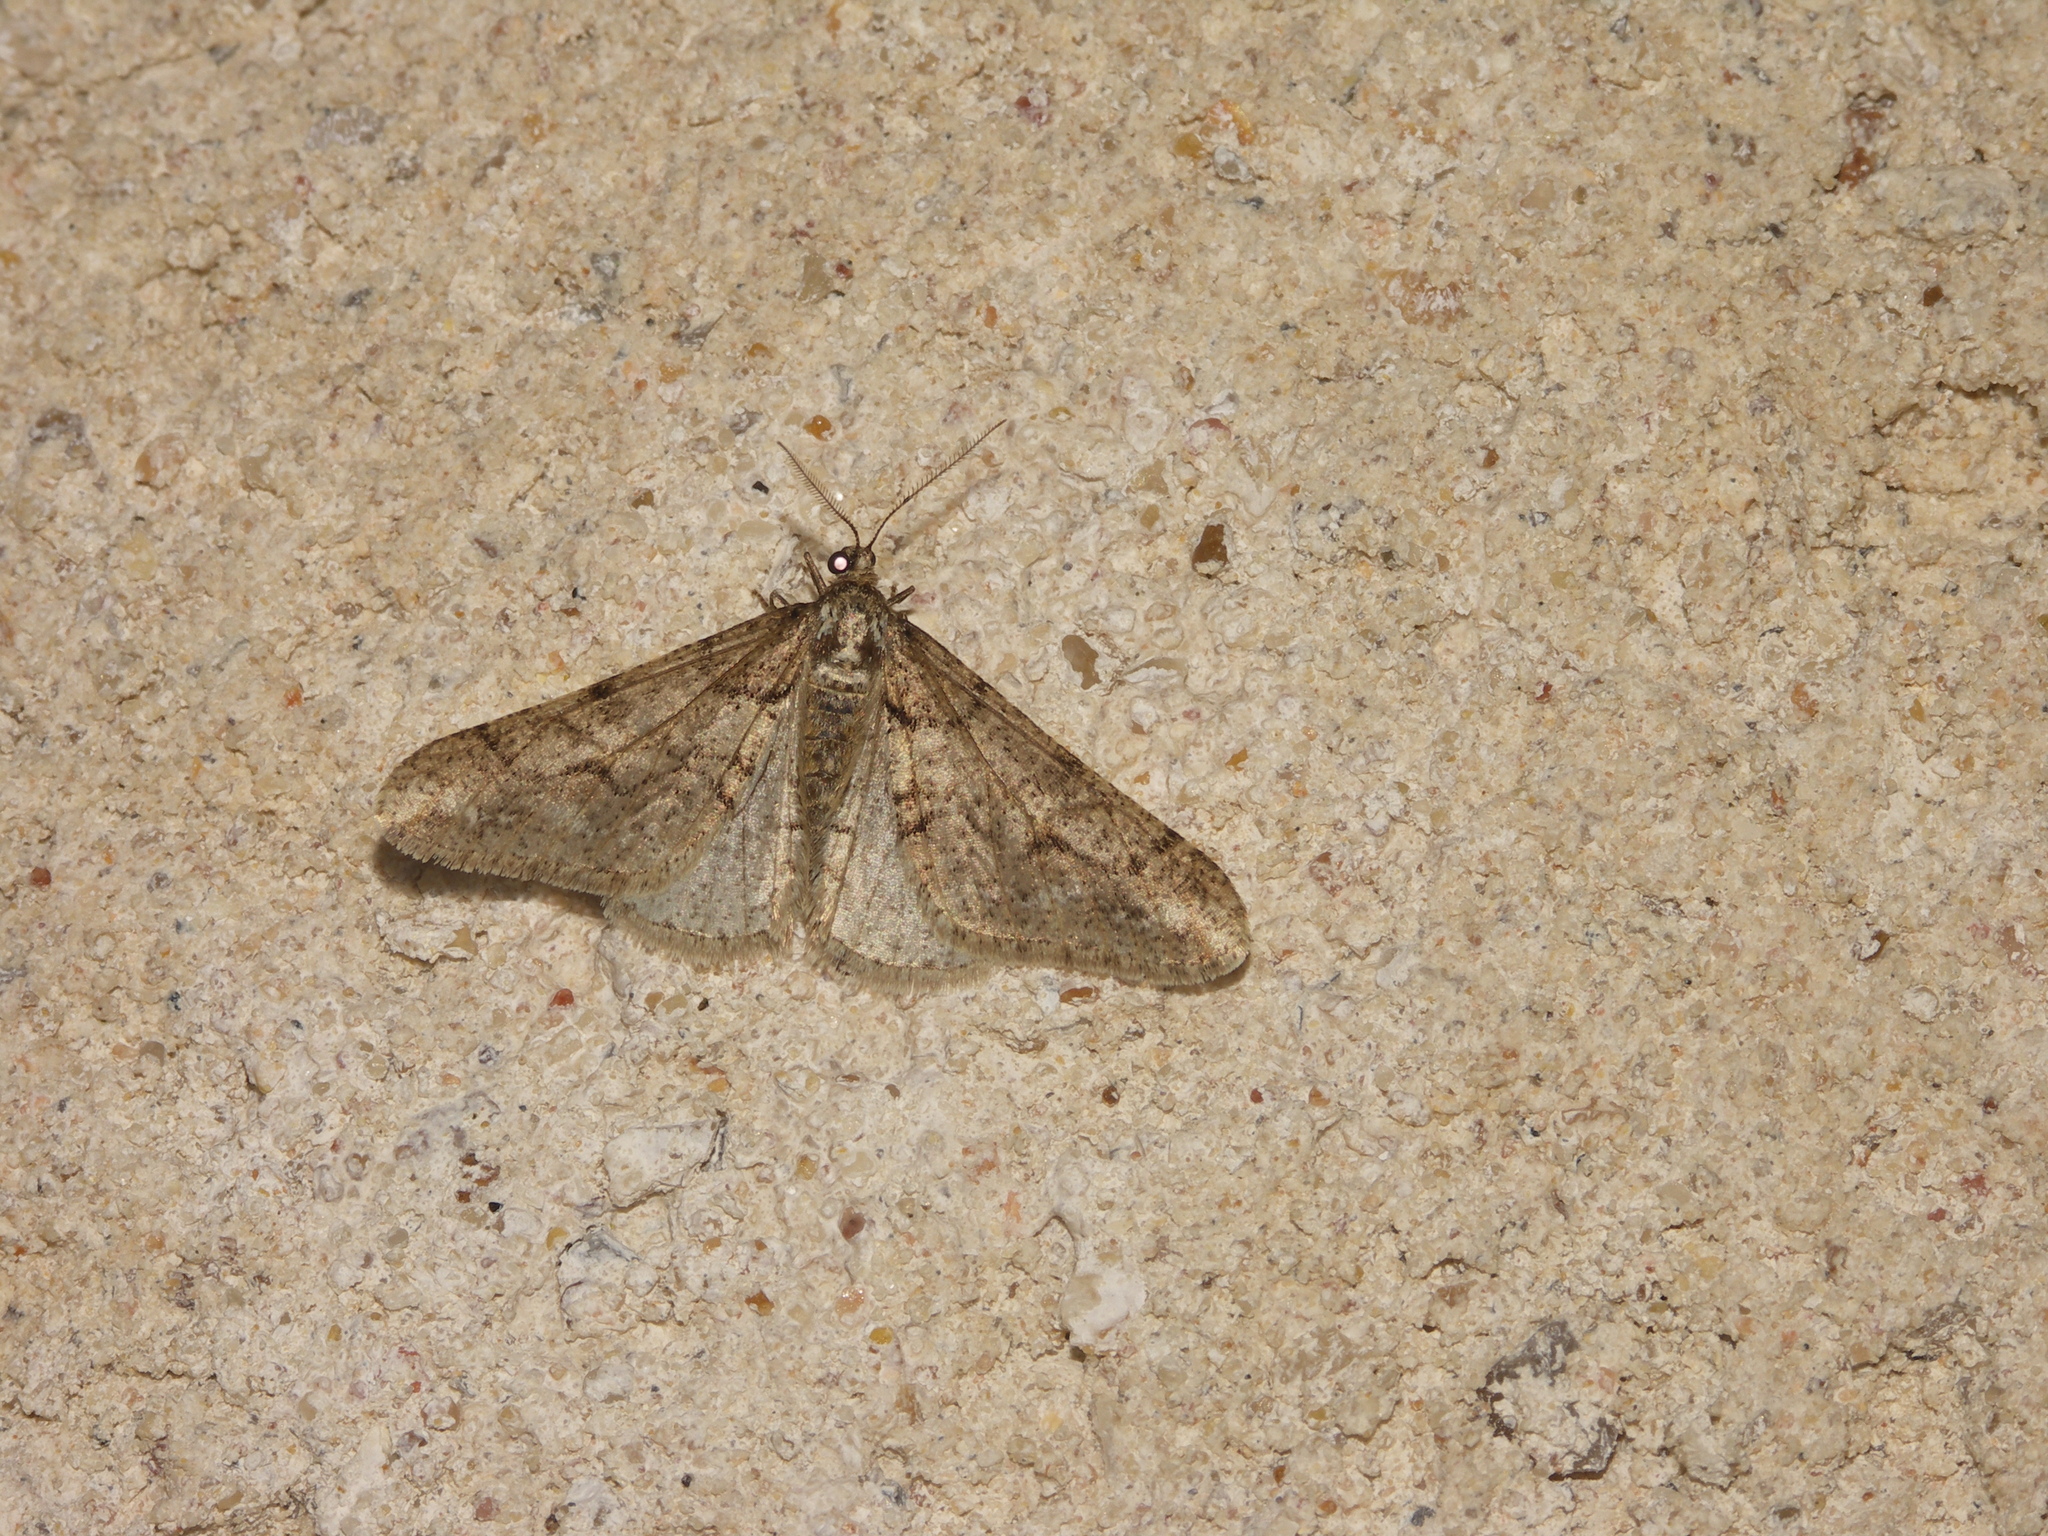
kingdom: Animalia
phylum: Arthropoda
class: Insecta
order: Lepidoptera
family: Geometridae
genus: Agriopis
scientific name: Agriopis leucophaearia
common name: Spring usher
